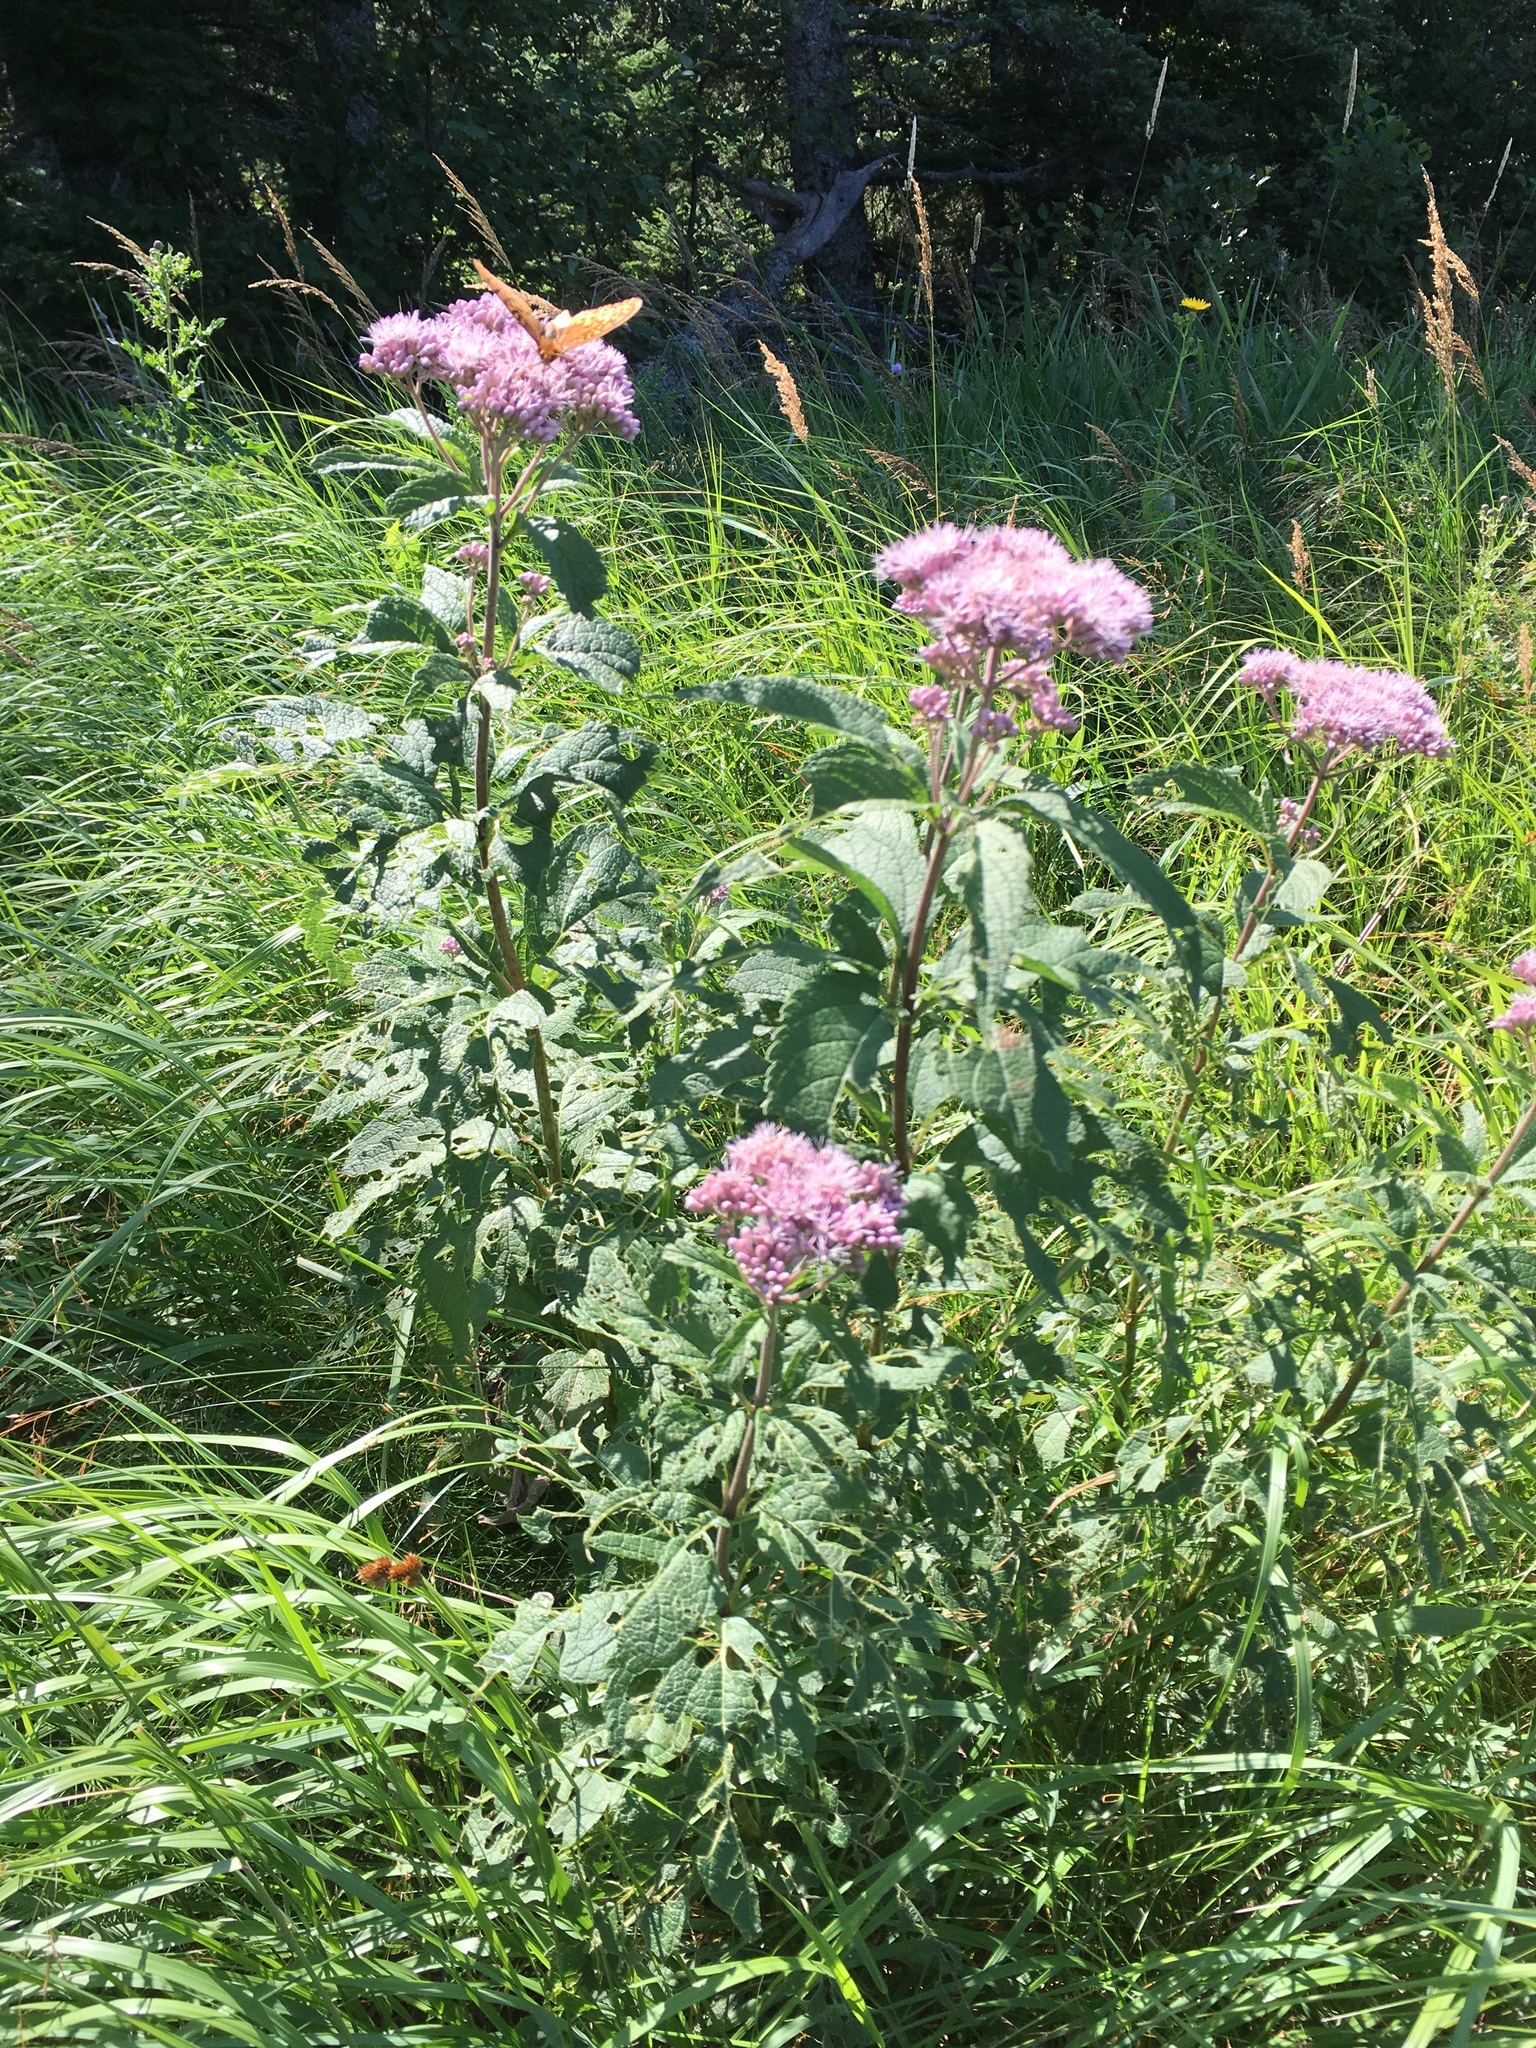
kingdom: Plantae
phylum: Tracheophyta
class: Magnoliopsida
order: Asterales
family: Asteraceae
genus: Eutrochium
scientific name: Eutrochium maculatum
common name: Spotted joe pye weed
